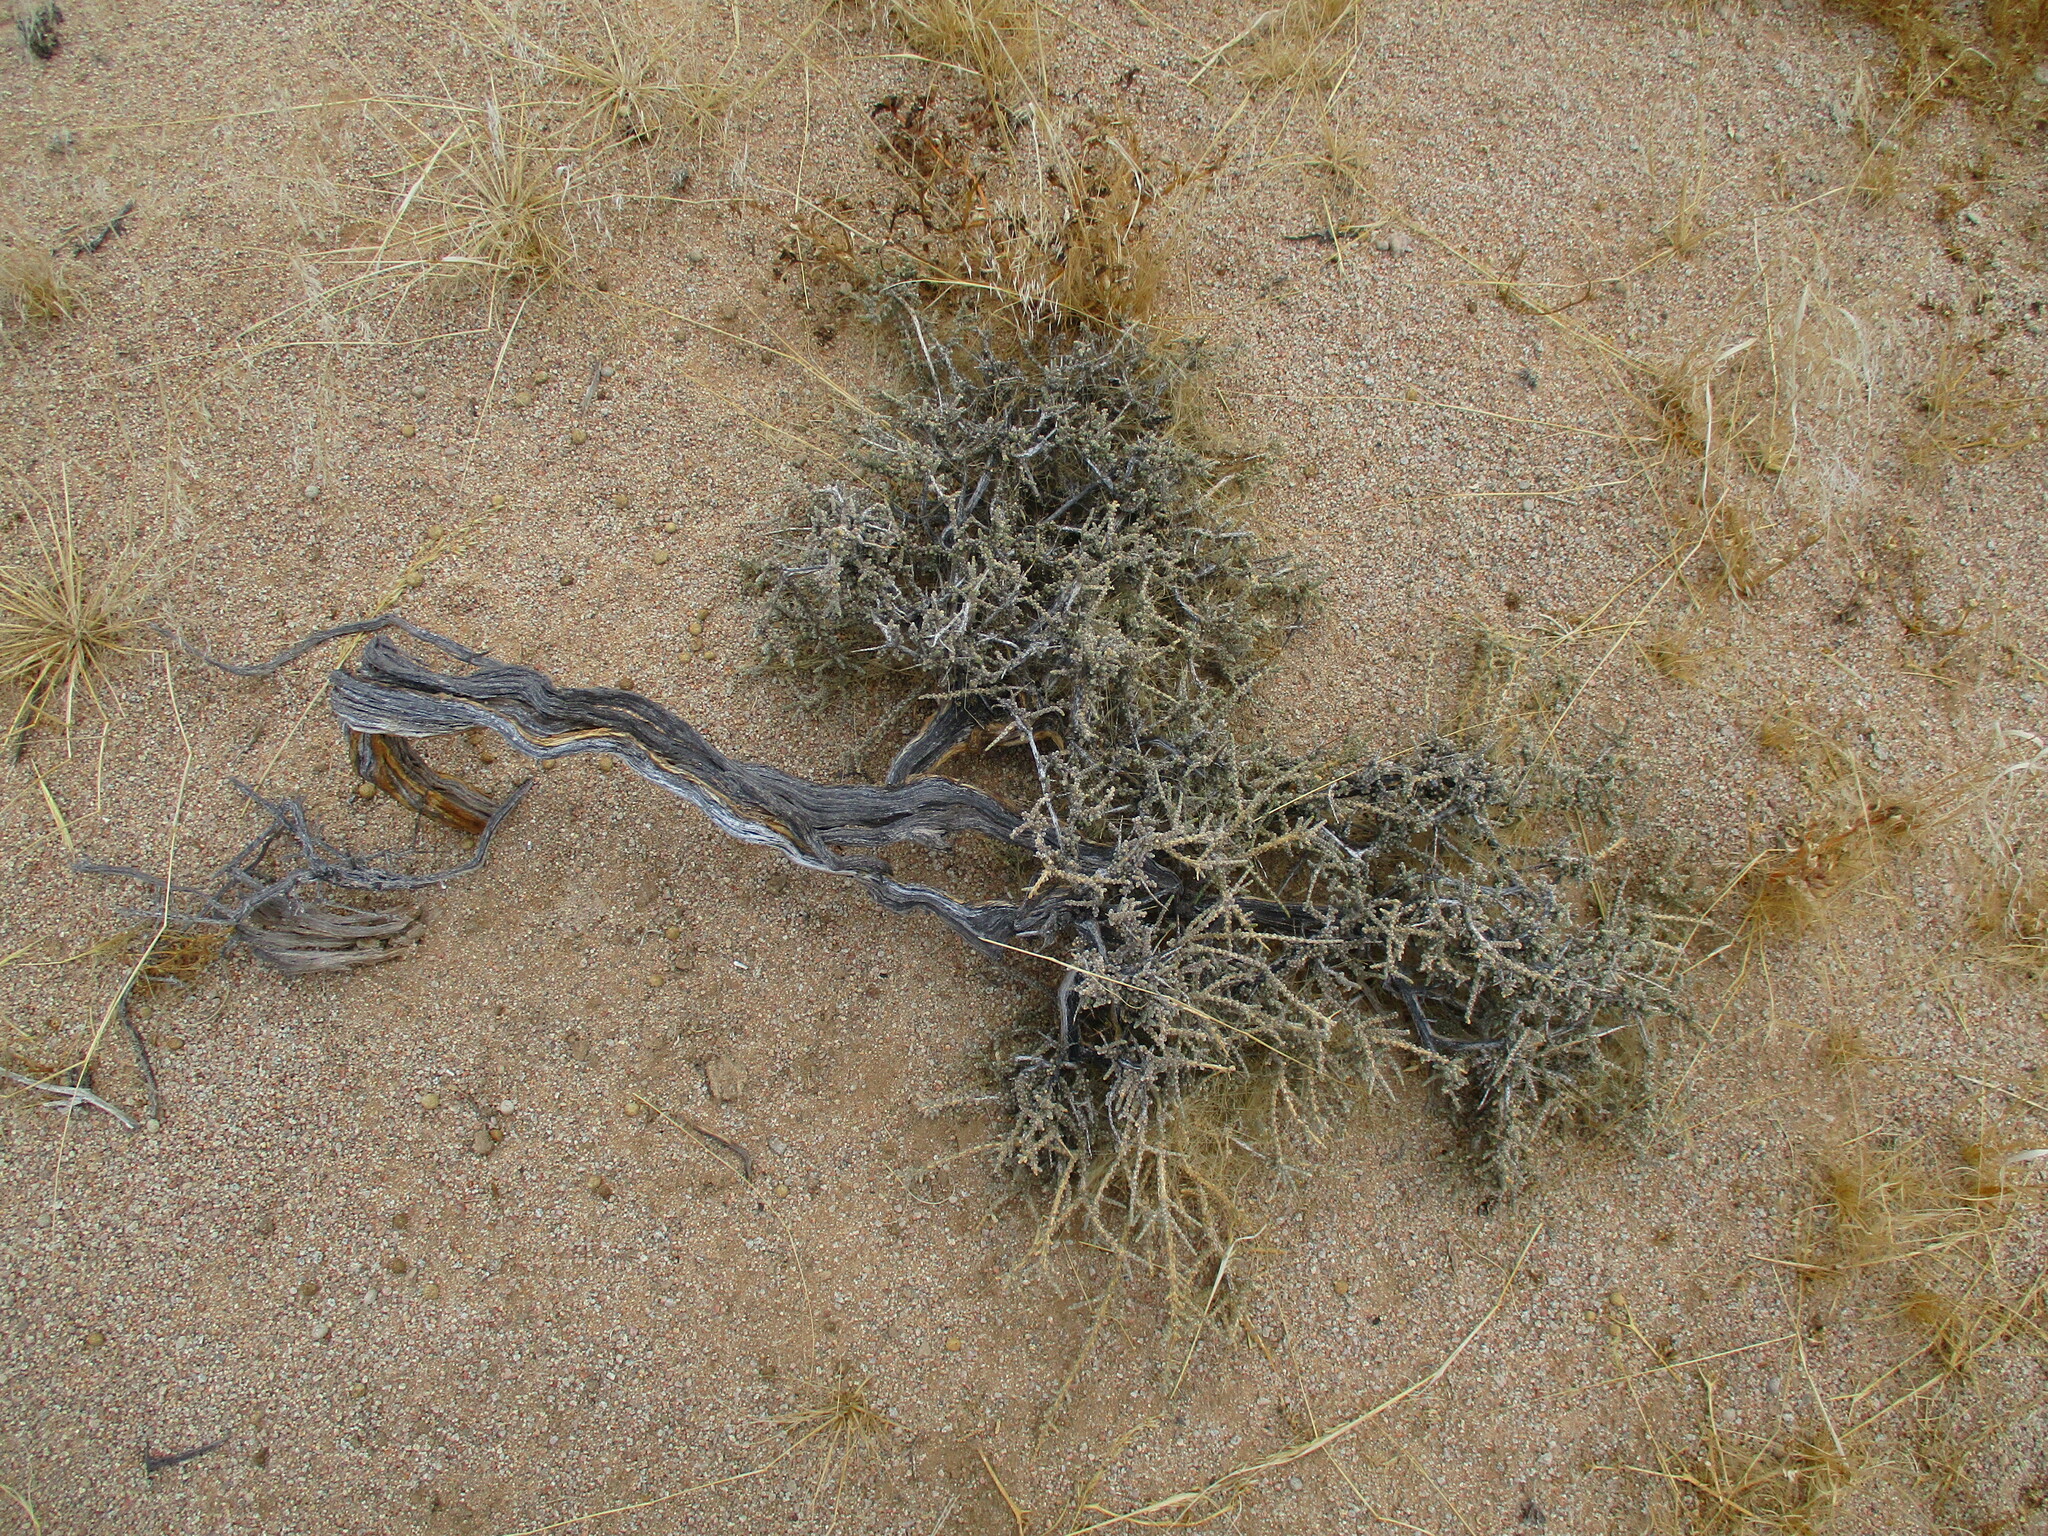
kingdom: Plantae
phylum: Tracheophyta
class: Magnoliopsida
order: Caryophyllales
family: Amaranthaceae
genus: Caroxylon
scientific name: Caroxylon tuberculatum
